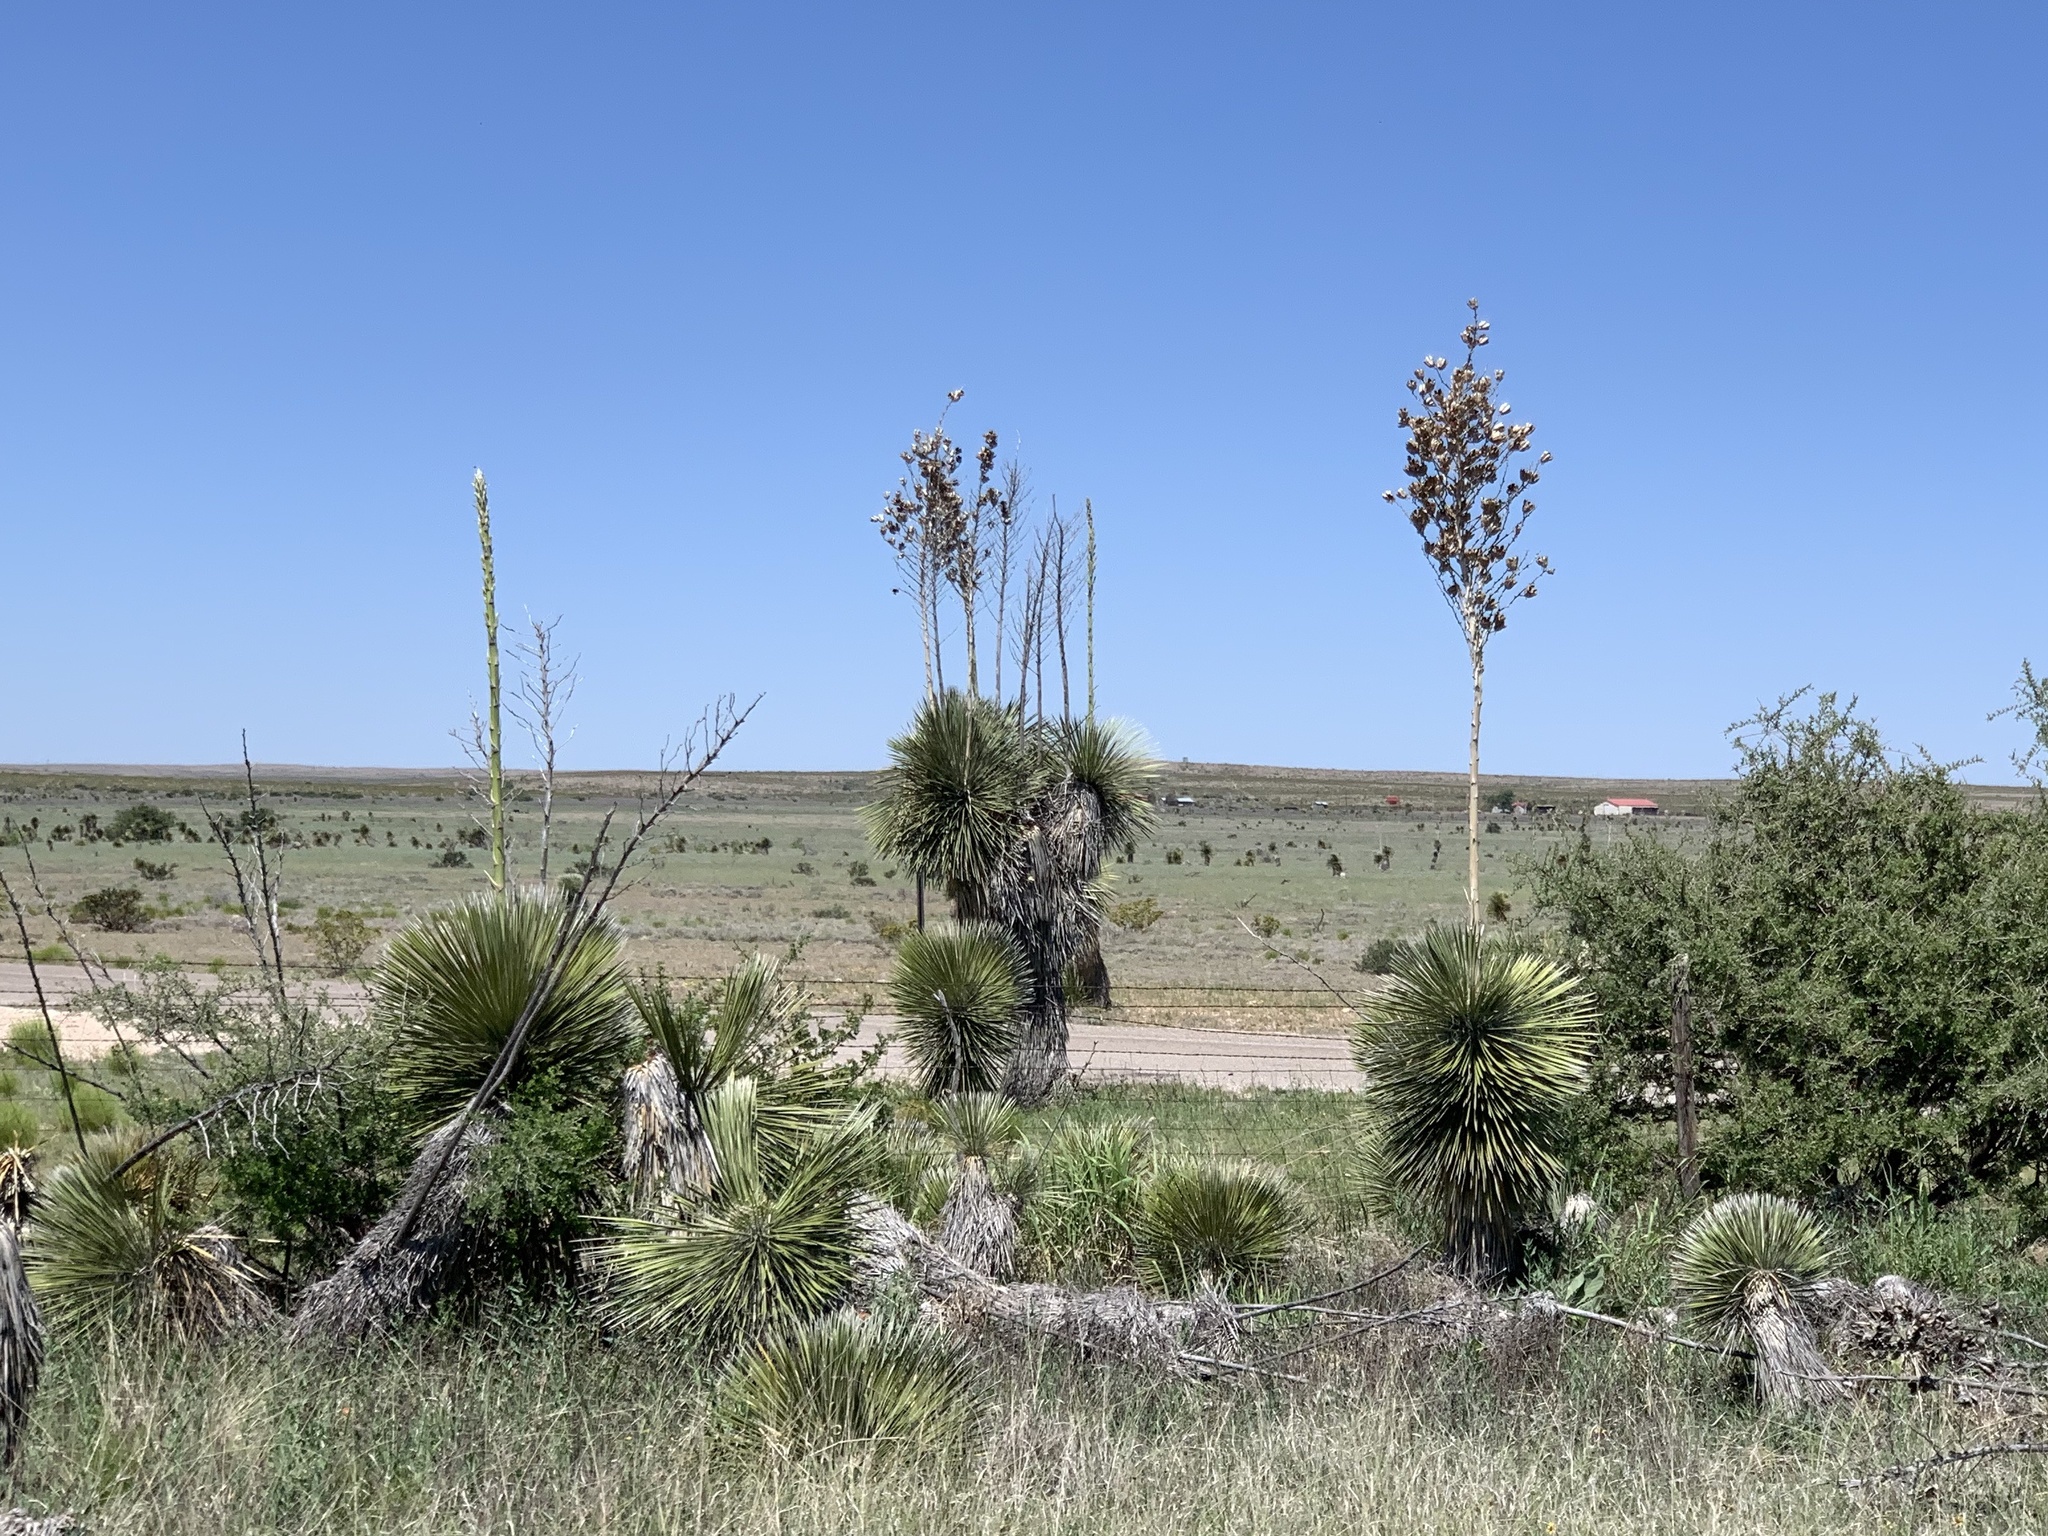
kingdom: Plantae
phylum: Tracheophyta
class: Liliopsida
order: Asparagales
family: Asparagaceae
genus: Yucca
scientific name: Yucca elata
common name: Palmella
